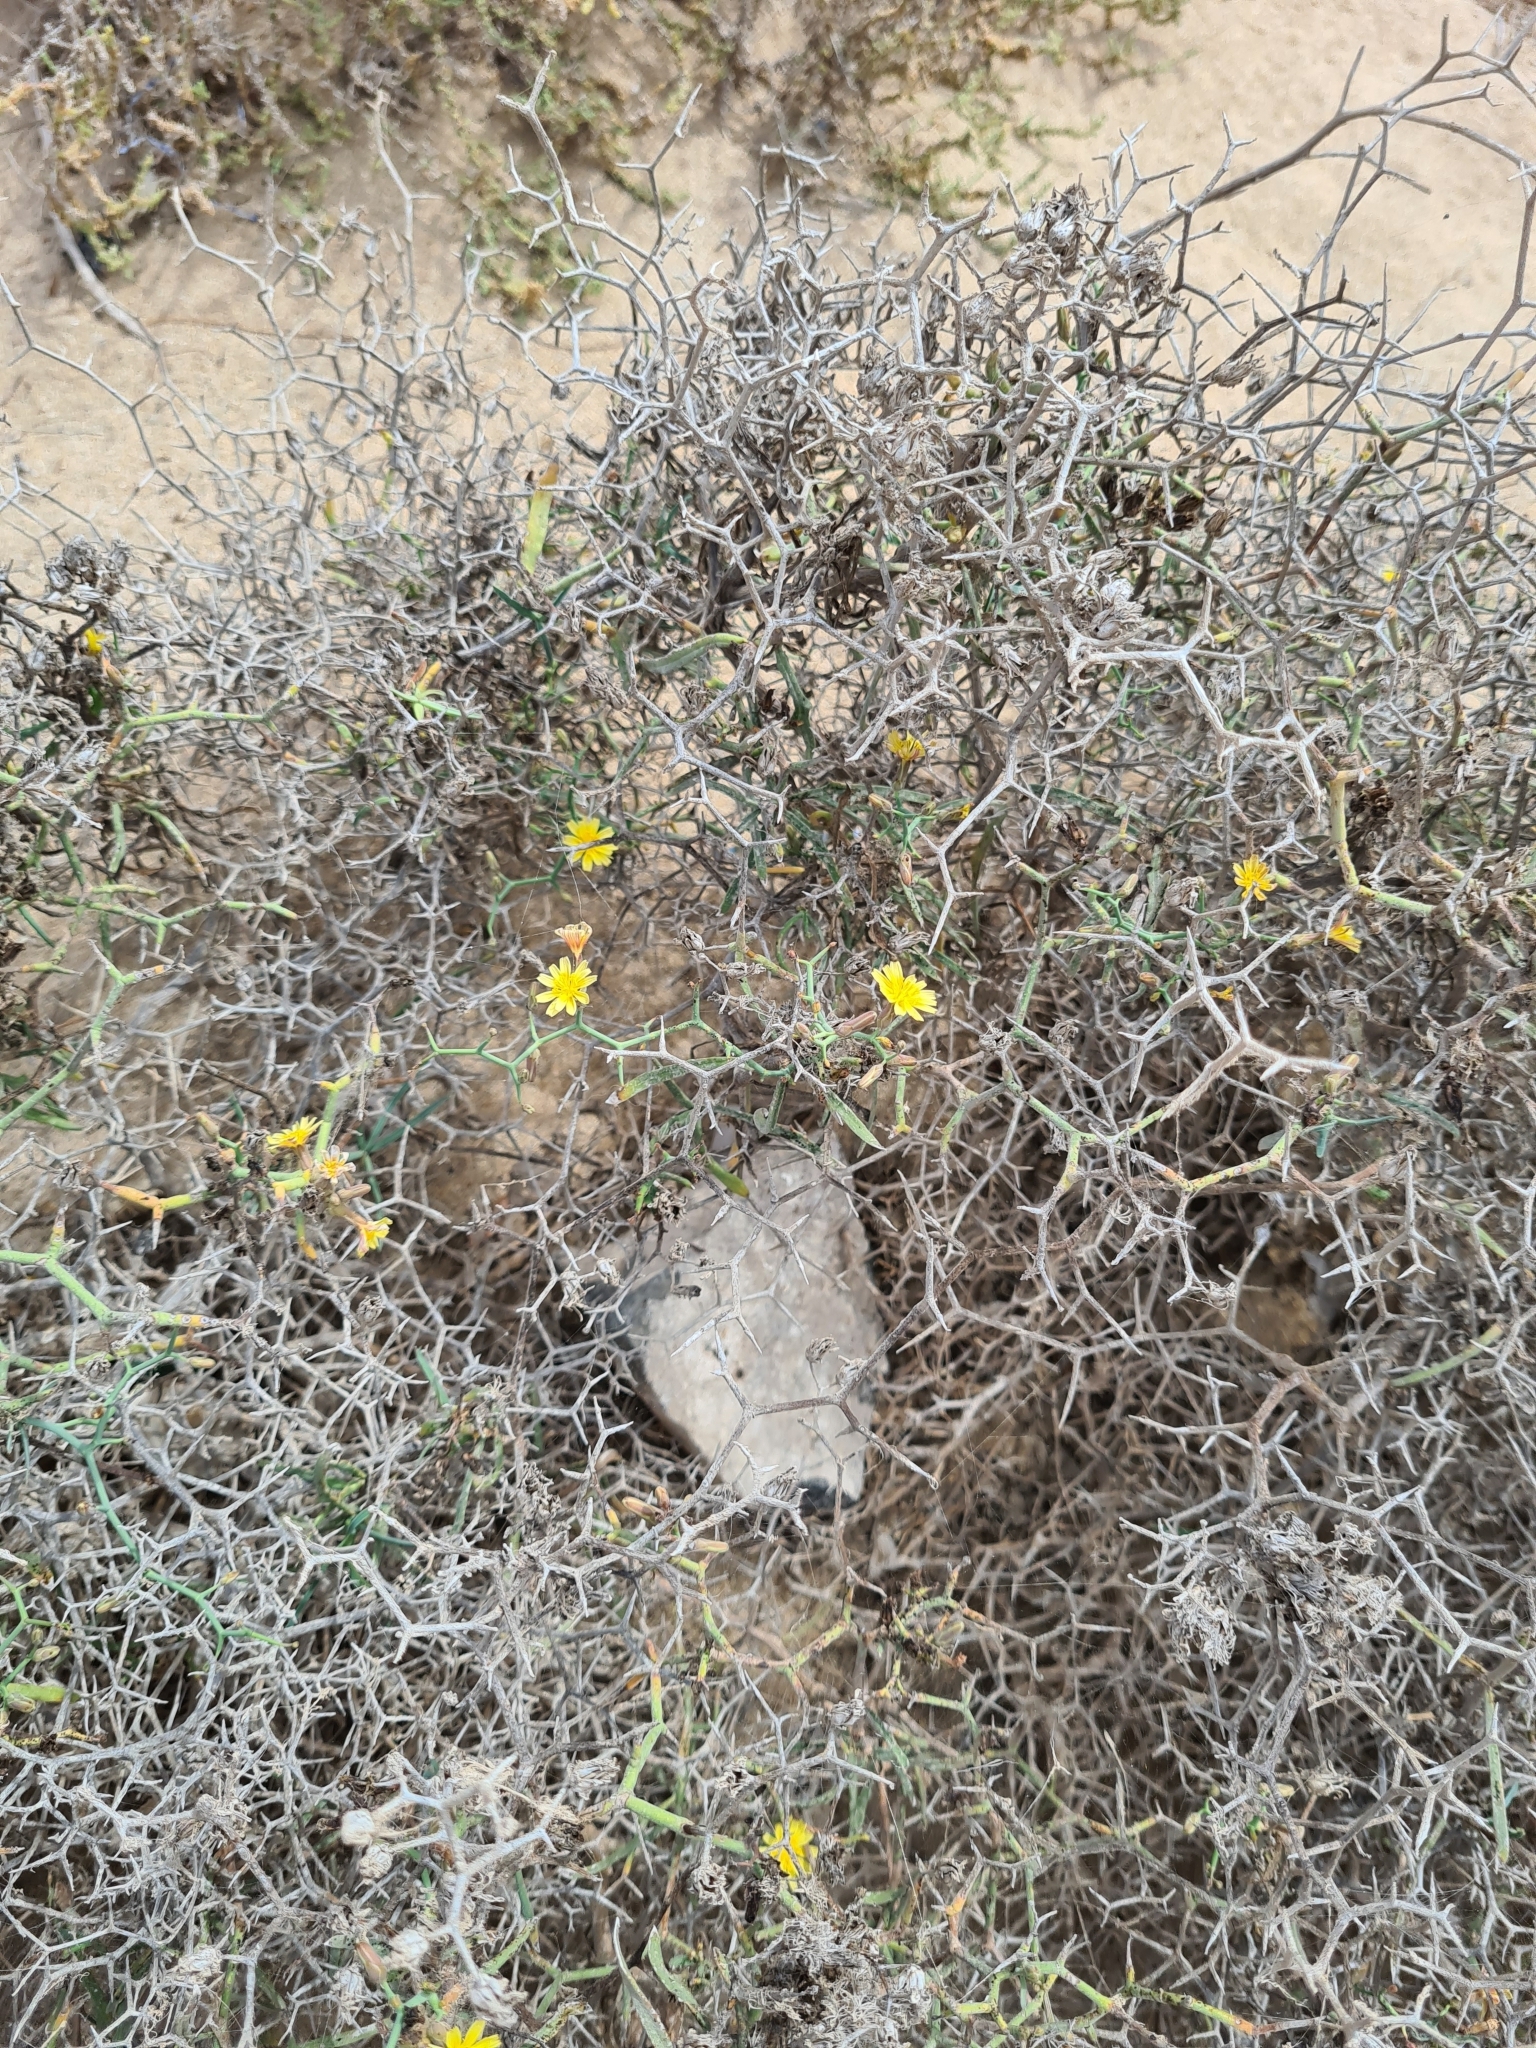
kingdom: Plantae
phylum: Tracheophyta
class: Magnoliopsida
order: Asterales
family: Asteraceae
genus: Launaea
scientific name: Launaea arborescens
